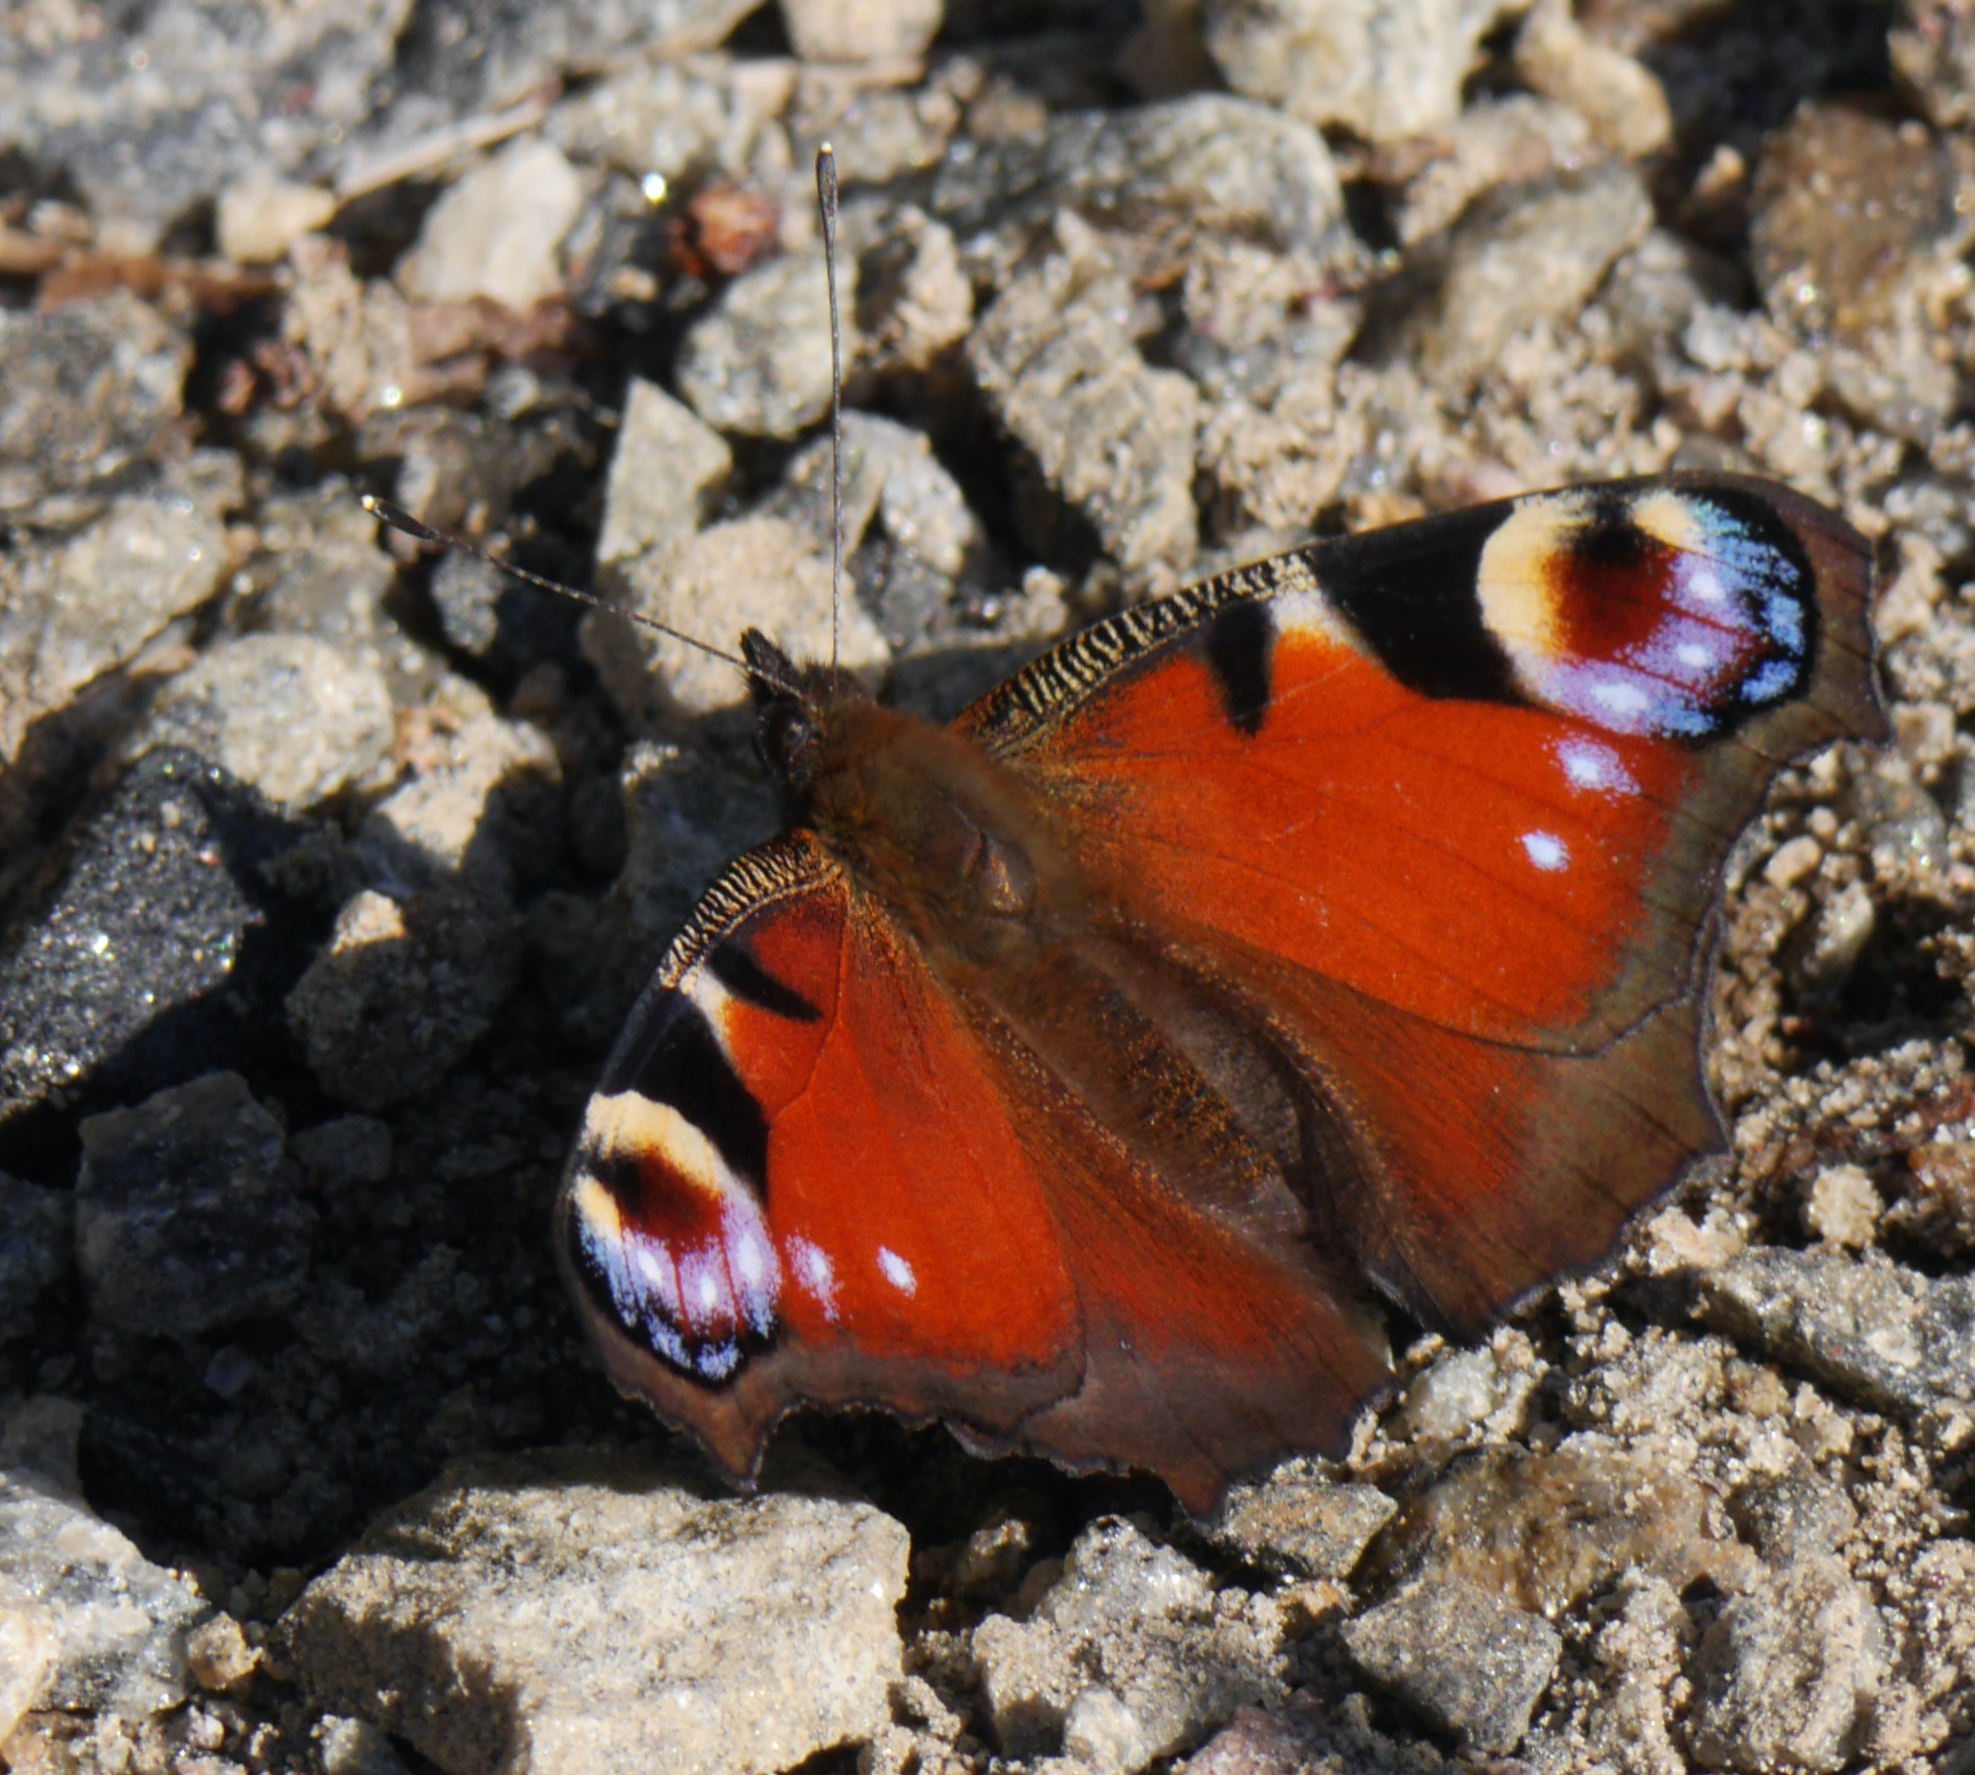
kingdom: Animalia
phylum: Arthropoda
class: Insecta
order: Lepidoptera
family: Nymphalidae
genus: Aglais
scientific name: Aglais io
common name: Peacock
